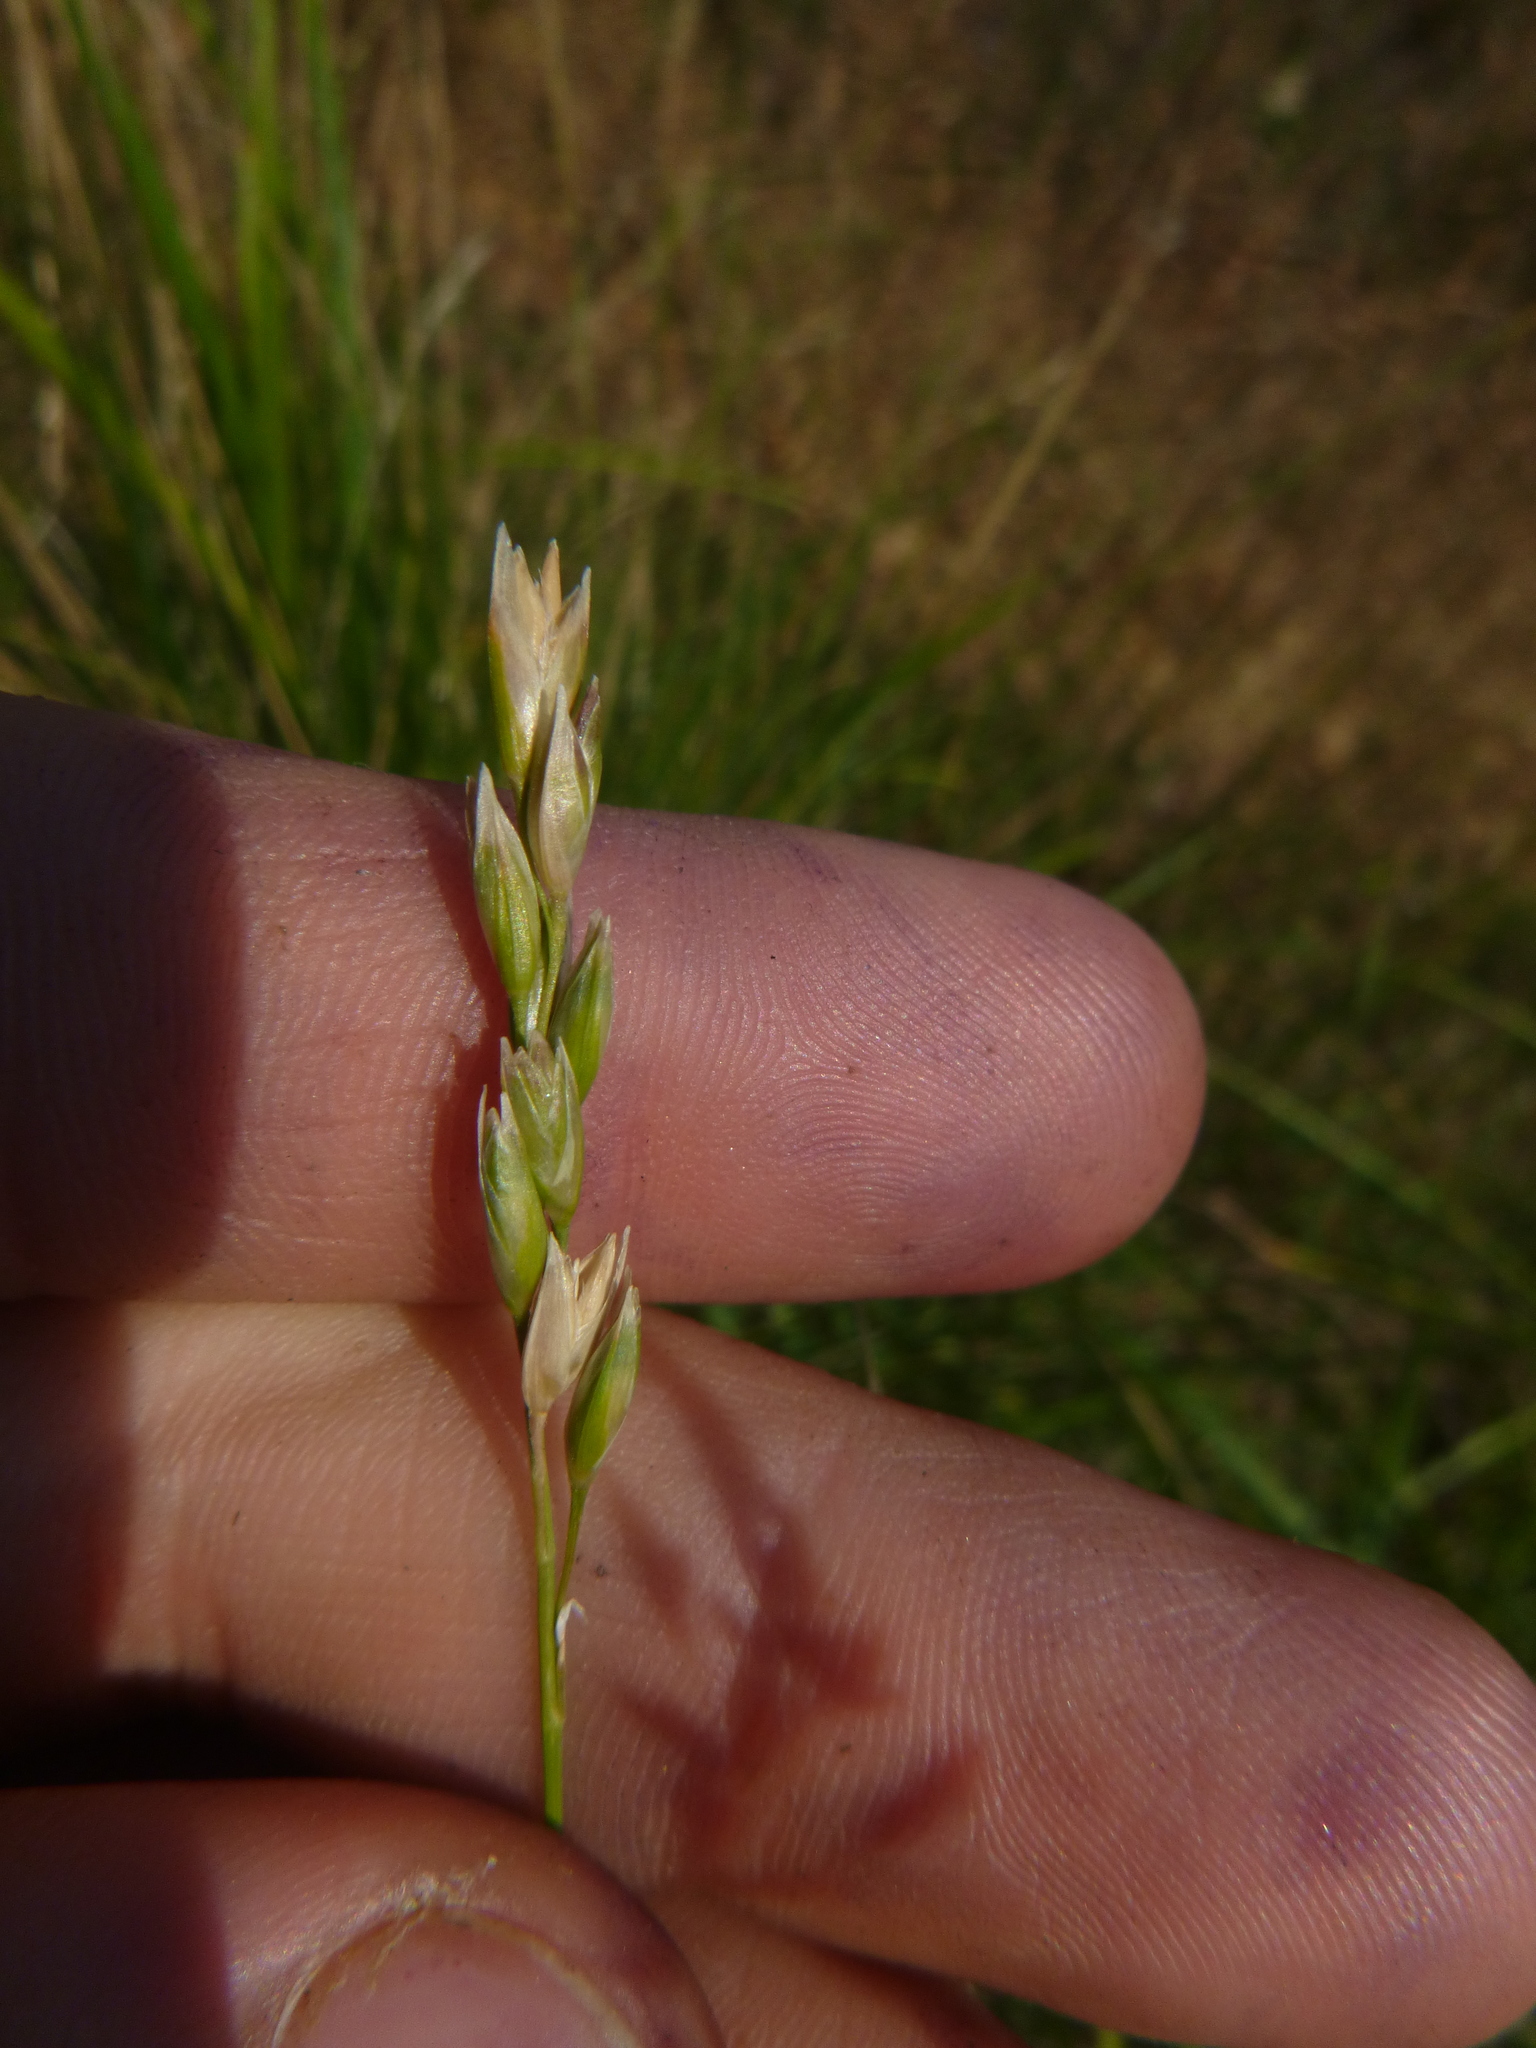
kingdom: Plantae
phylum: Tracheophyta
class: Liliopsida
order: Poales
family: Poaceae
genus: Danthonia
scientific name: Danthonia decumbens
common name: Common heathgrass
